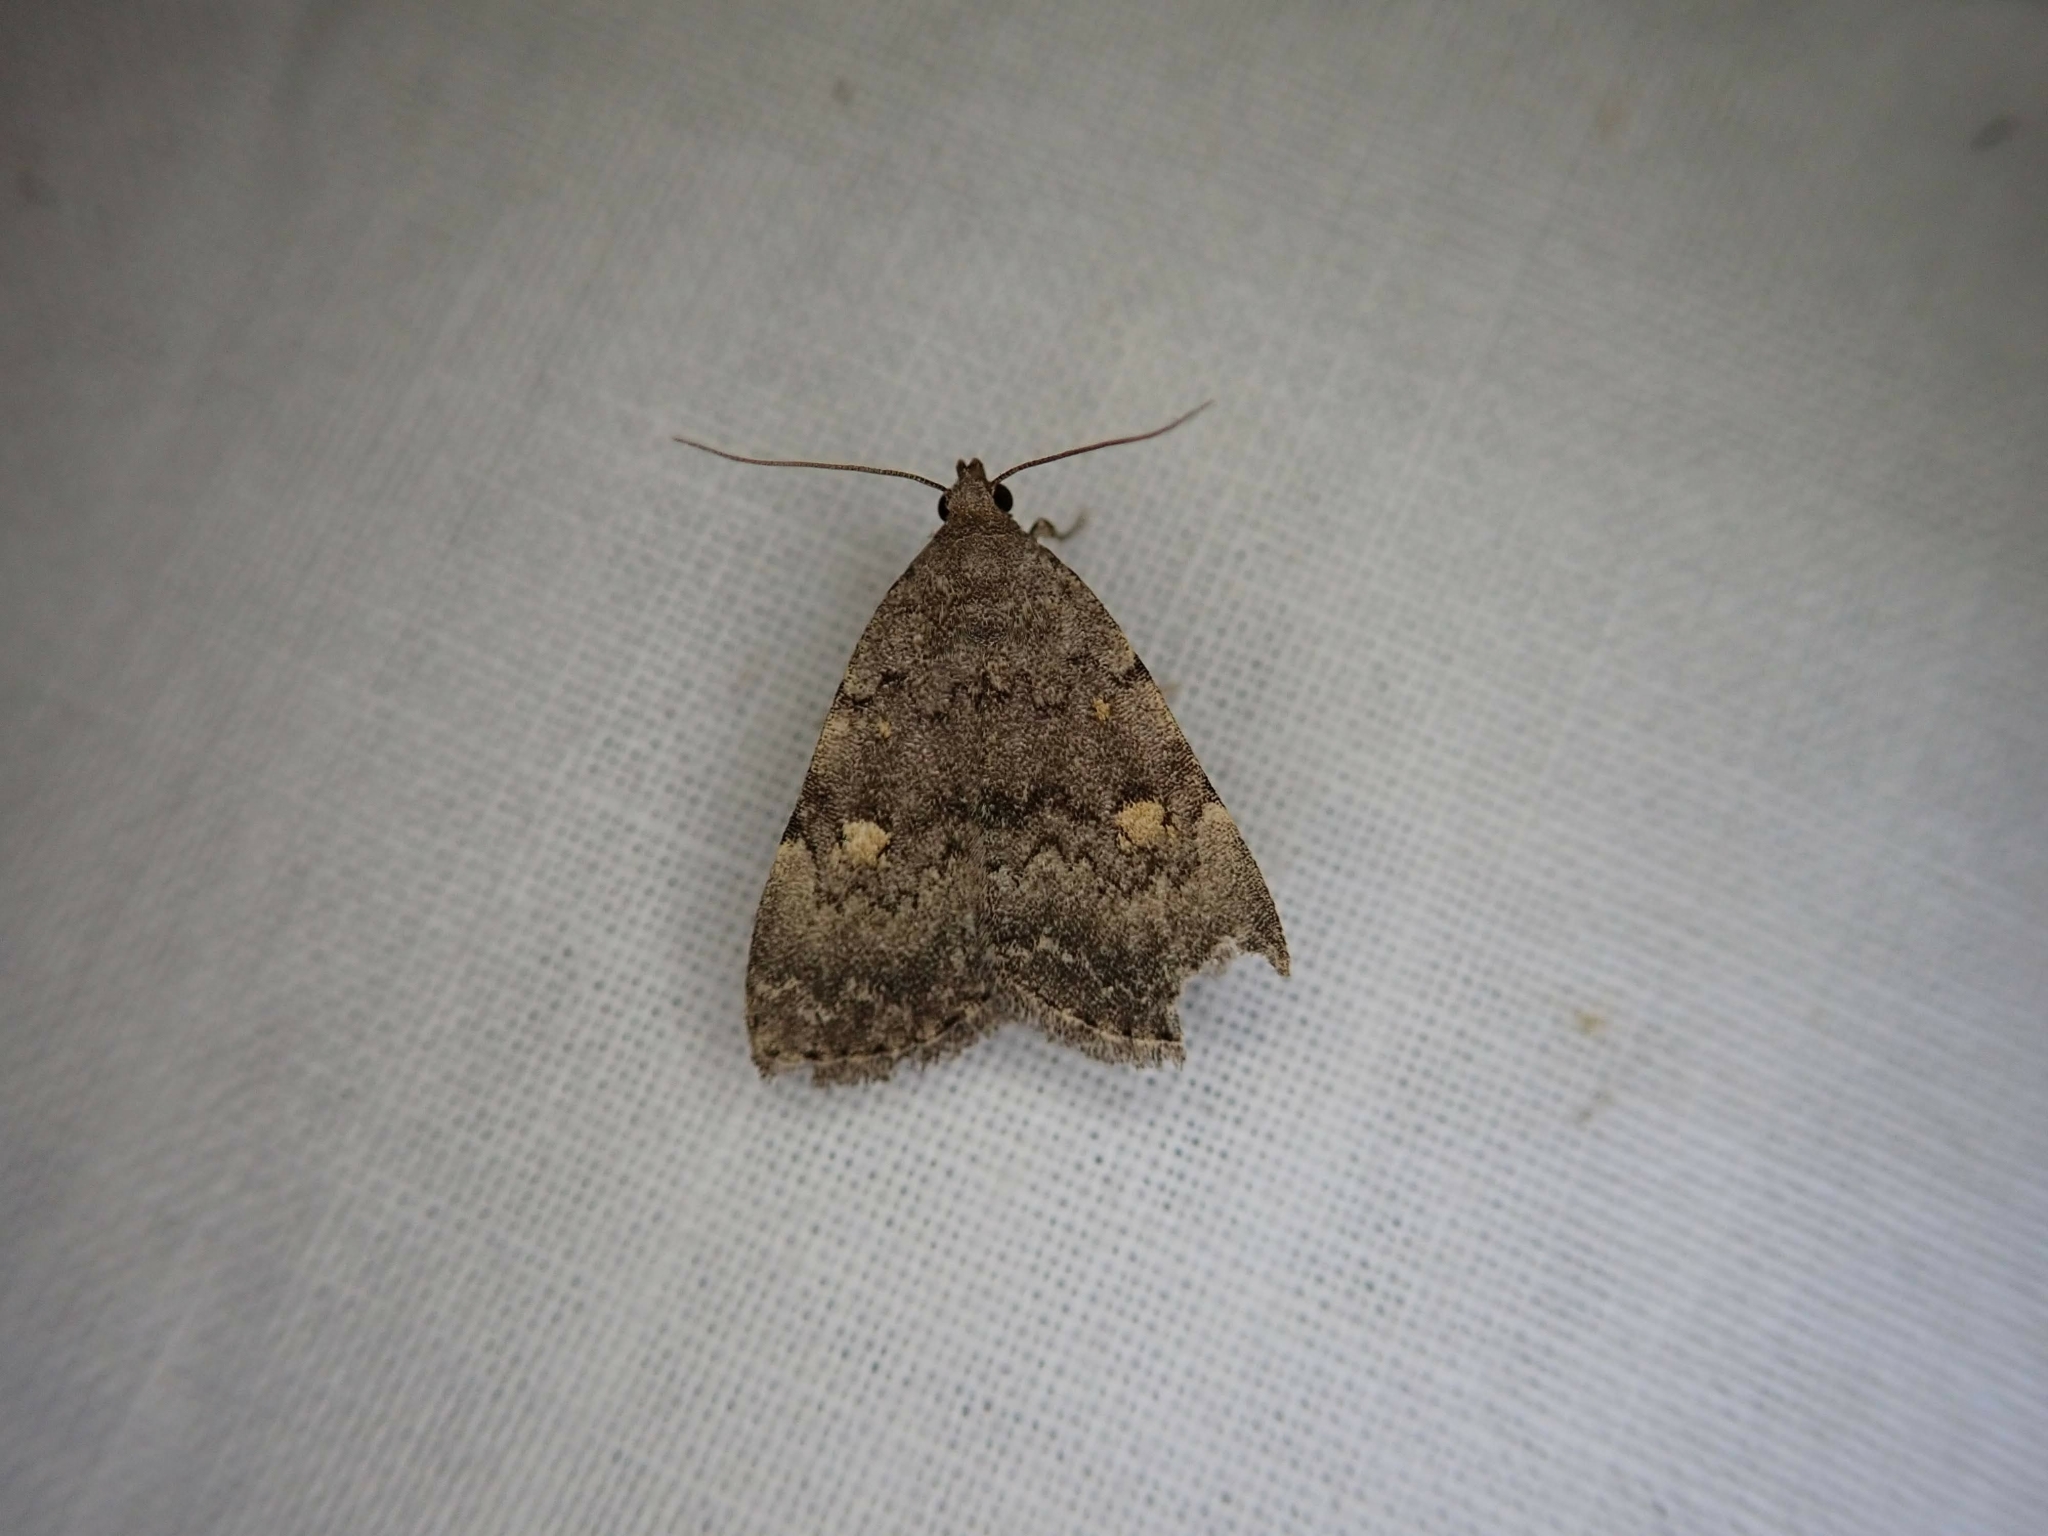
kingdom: Animalia
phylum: Arthropoda
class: Insecta
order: Lepidoptera
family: Erebidae
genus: Idia
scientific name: Idia aemula
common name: Common idia moth
